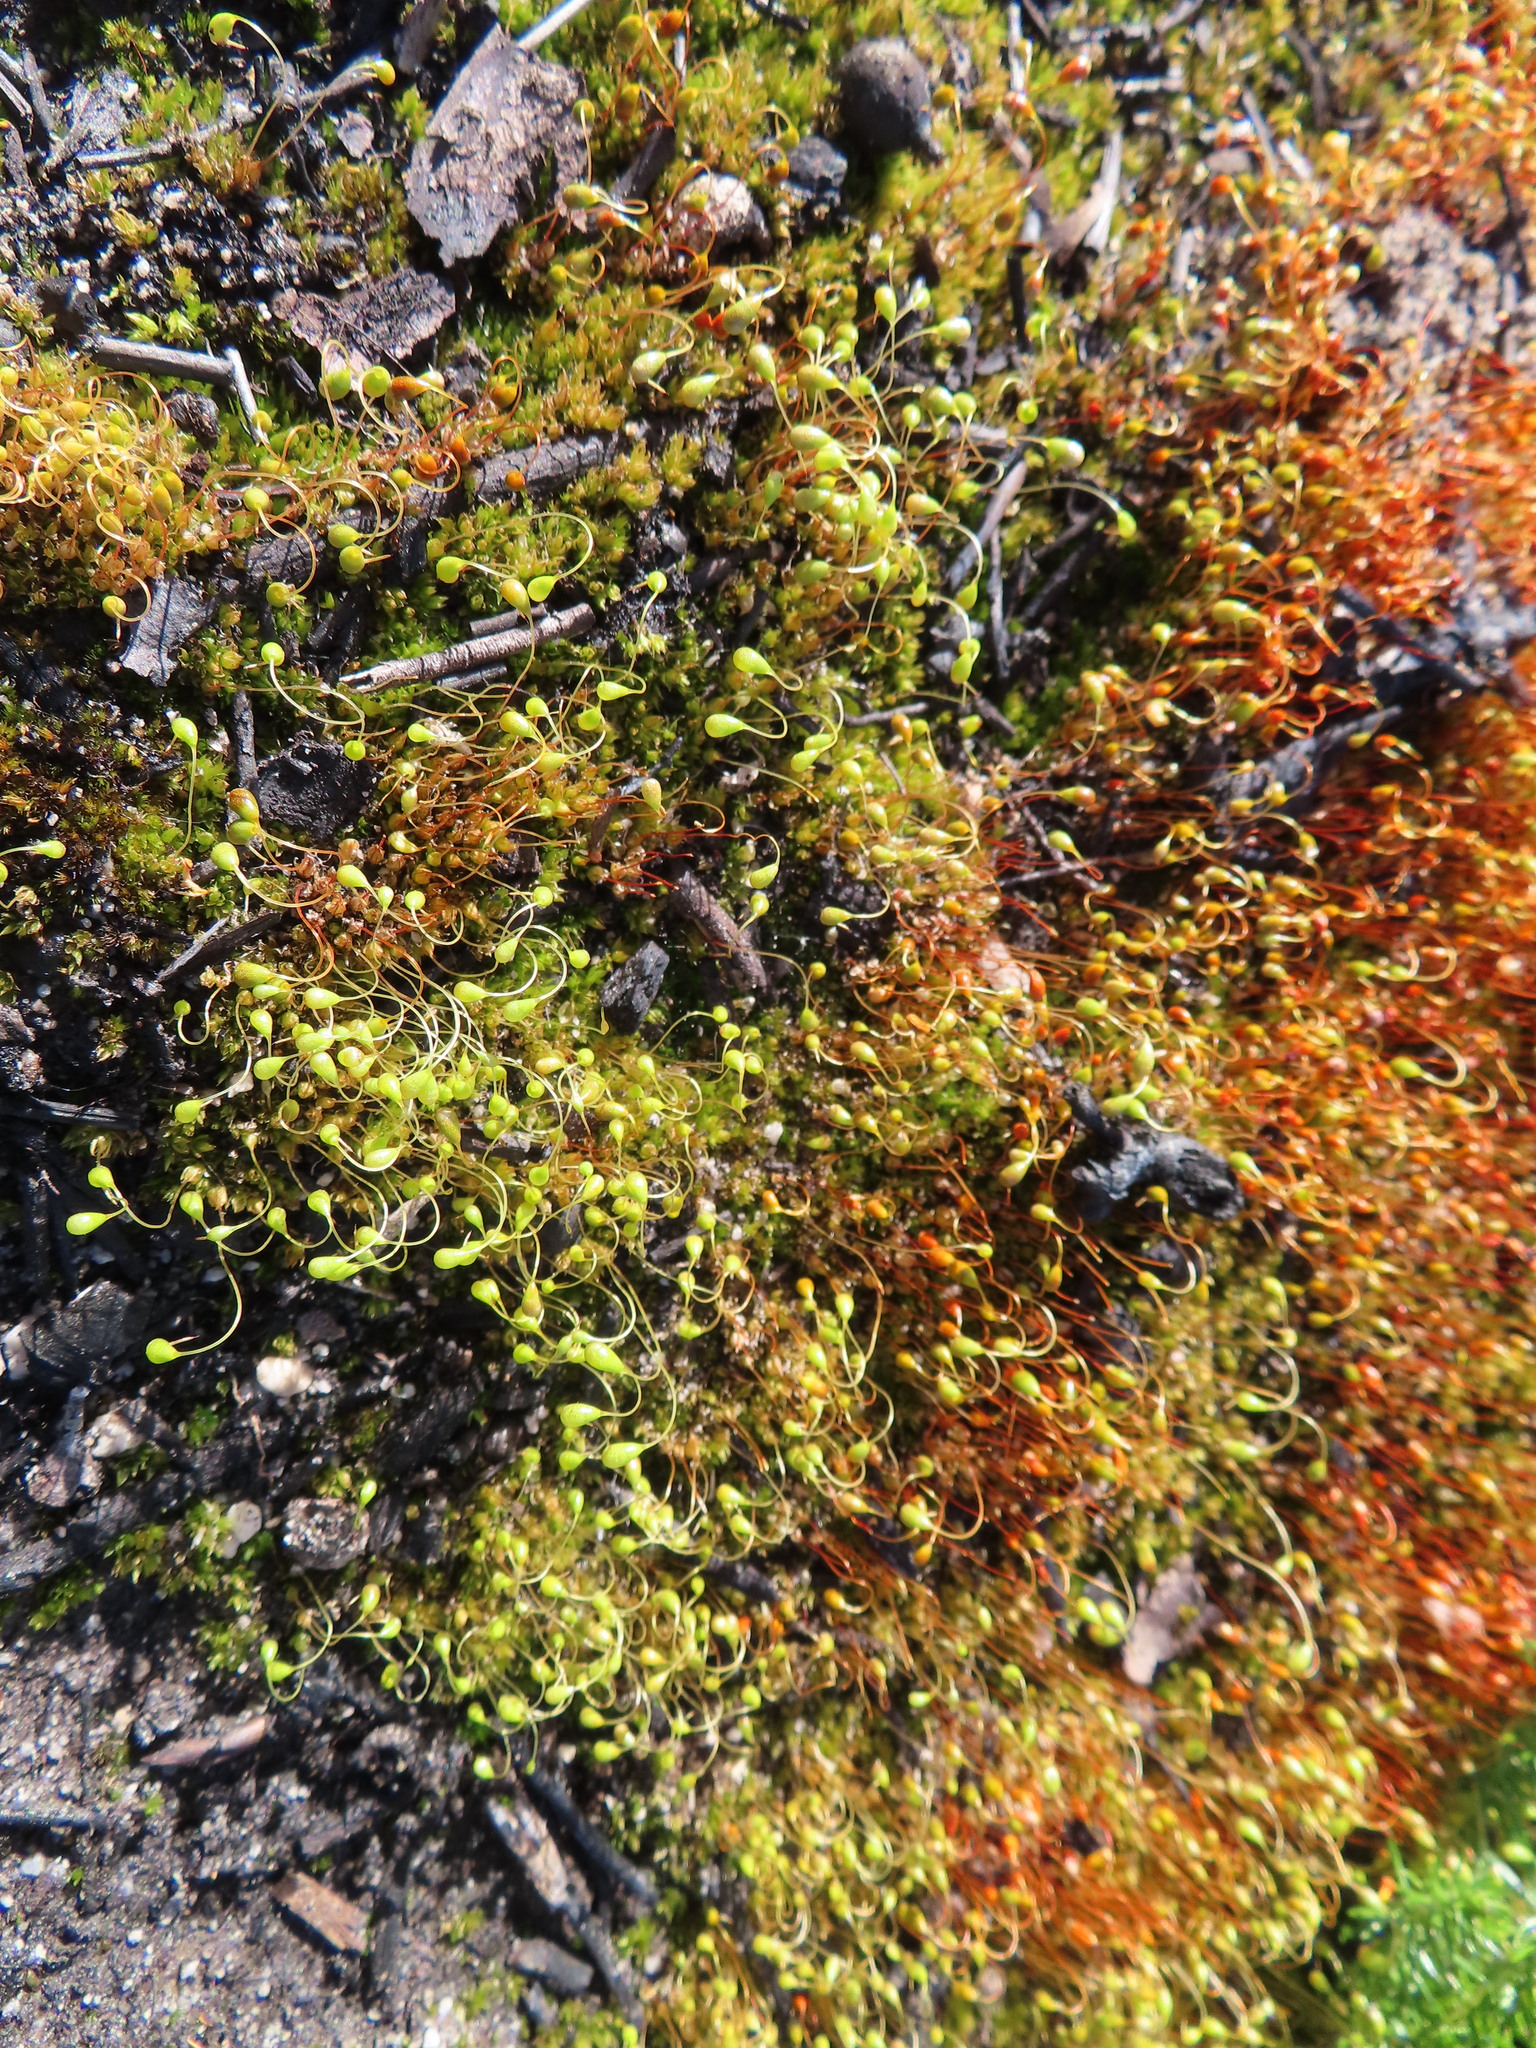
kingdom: Plantae
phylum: Bryophyta
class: Bryopsida
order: Funariales
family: Funariaceae
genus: Funaria
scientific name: Funaria hygrometrica
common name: Common cord moss
